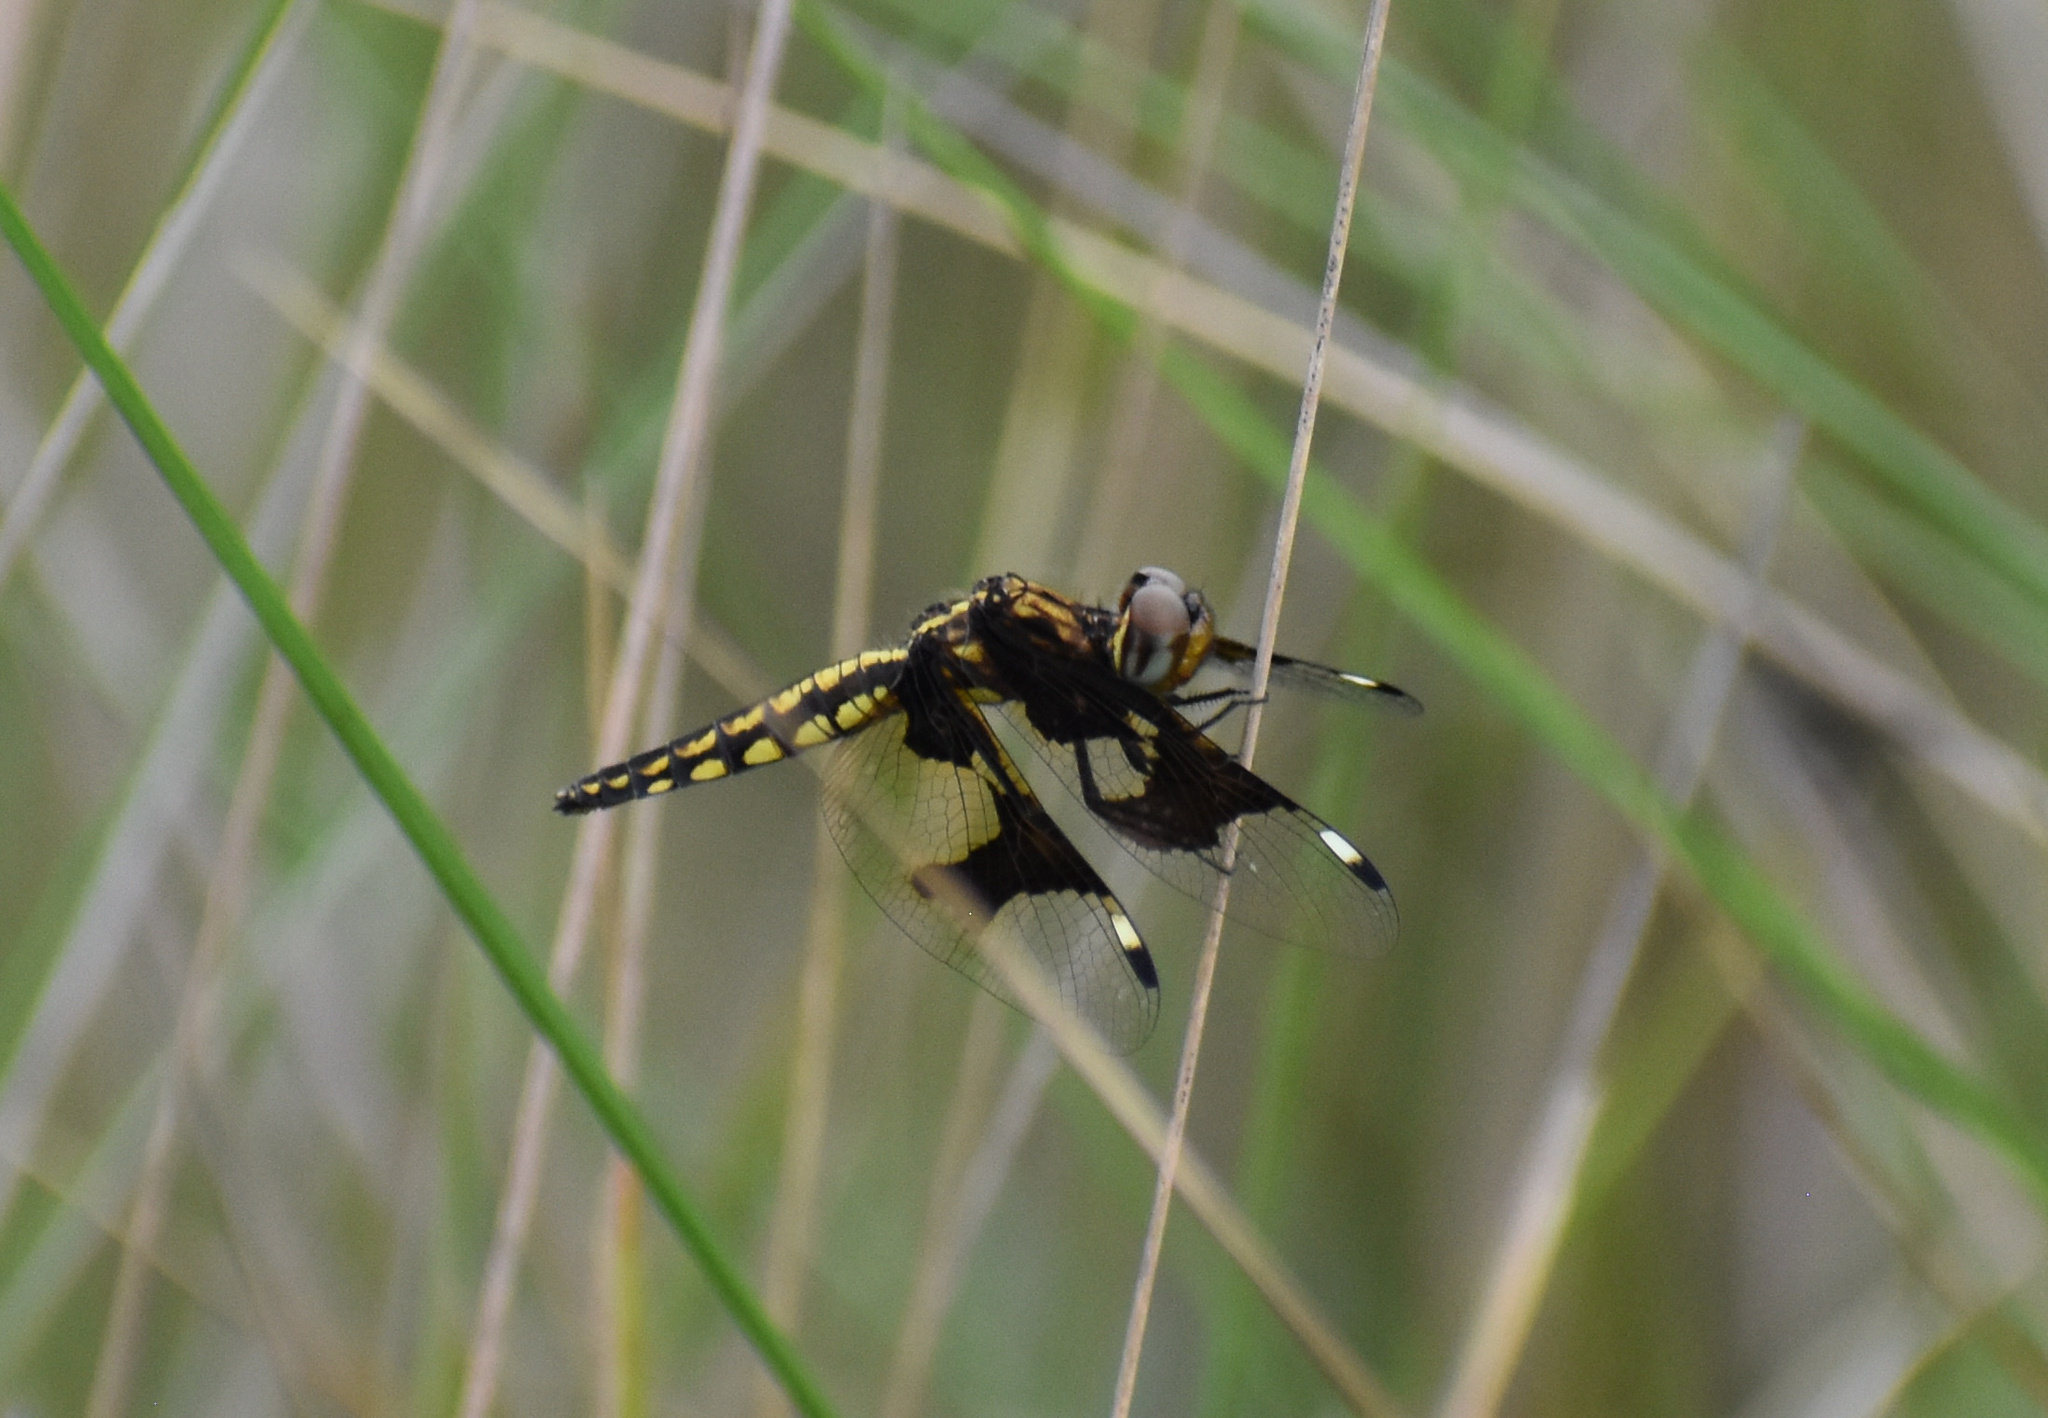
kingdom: Animalia
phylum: Arthropoda
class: Insecta
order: Odonata
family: Libellulidae
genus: Palpopleura
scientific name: Palpopleura lucia
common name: Lucia widow
